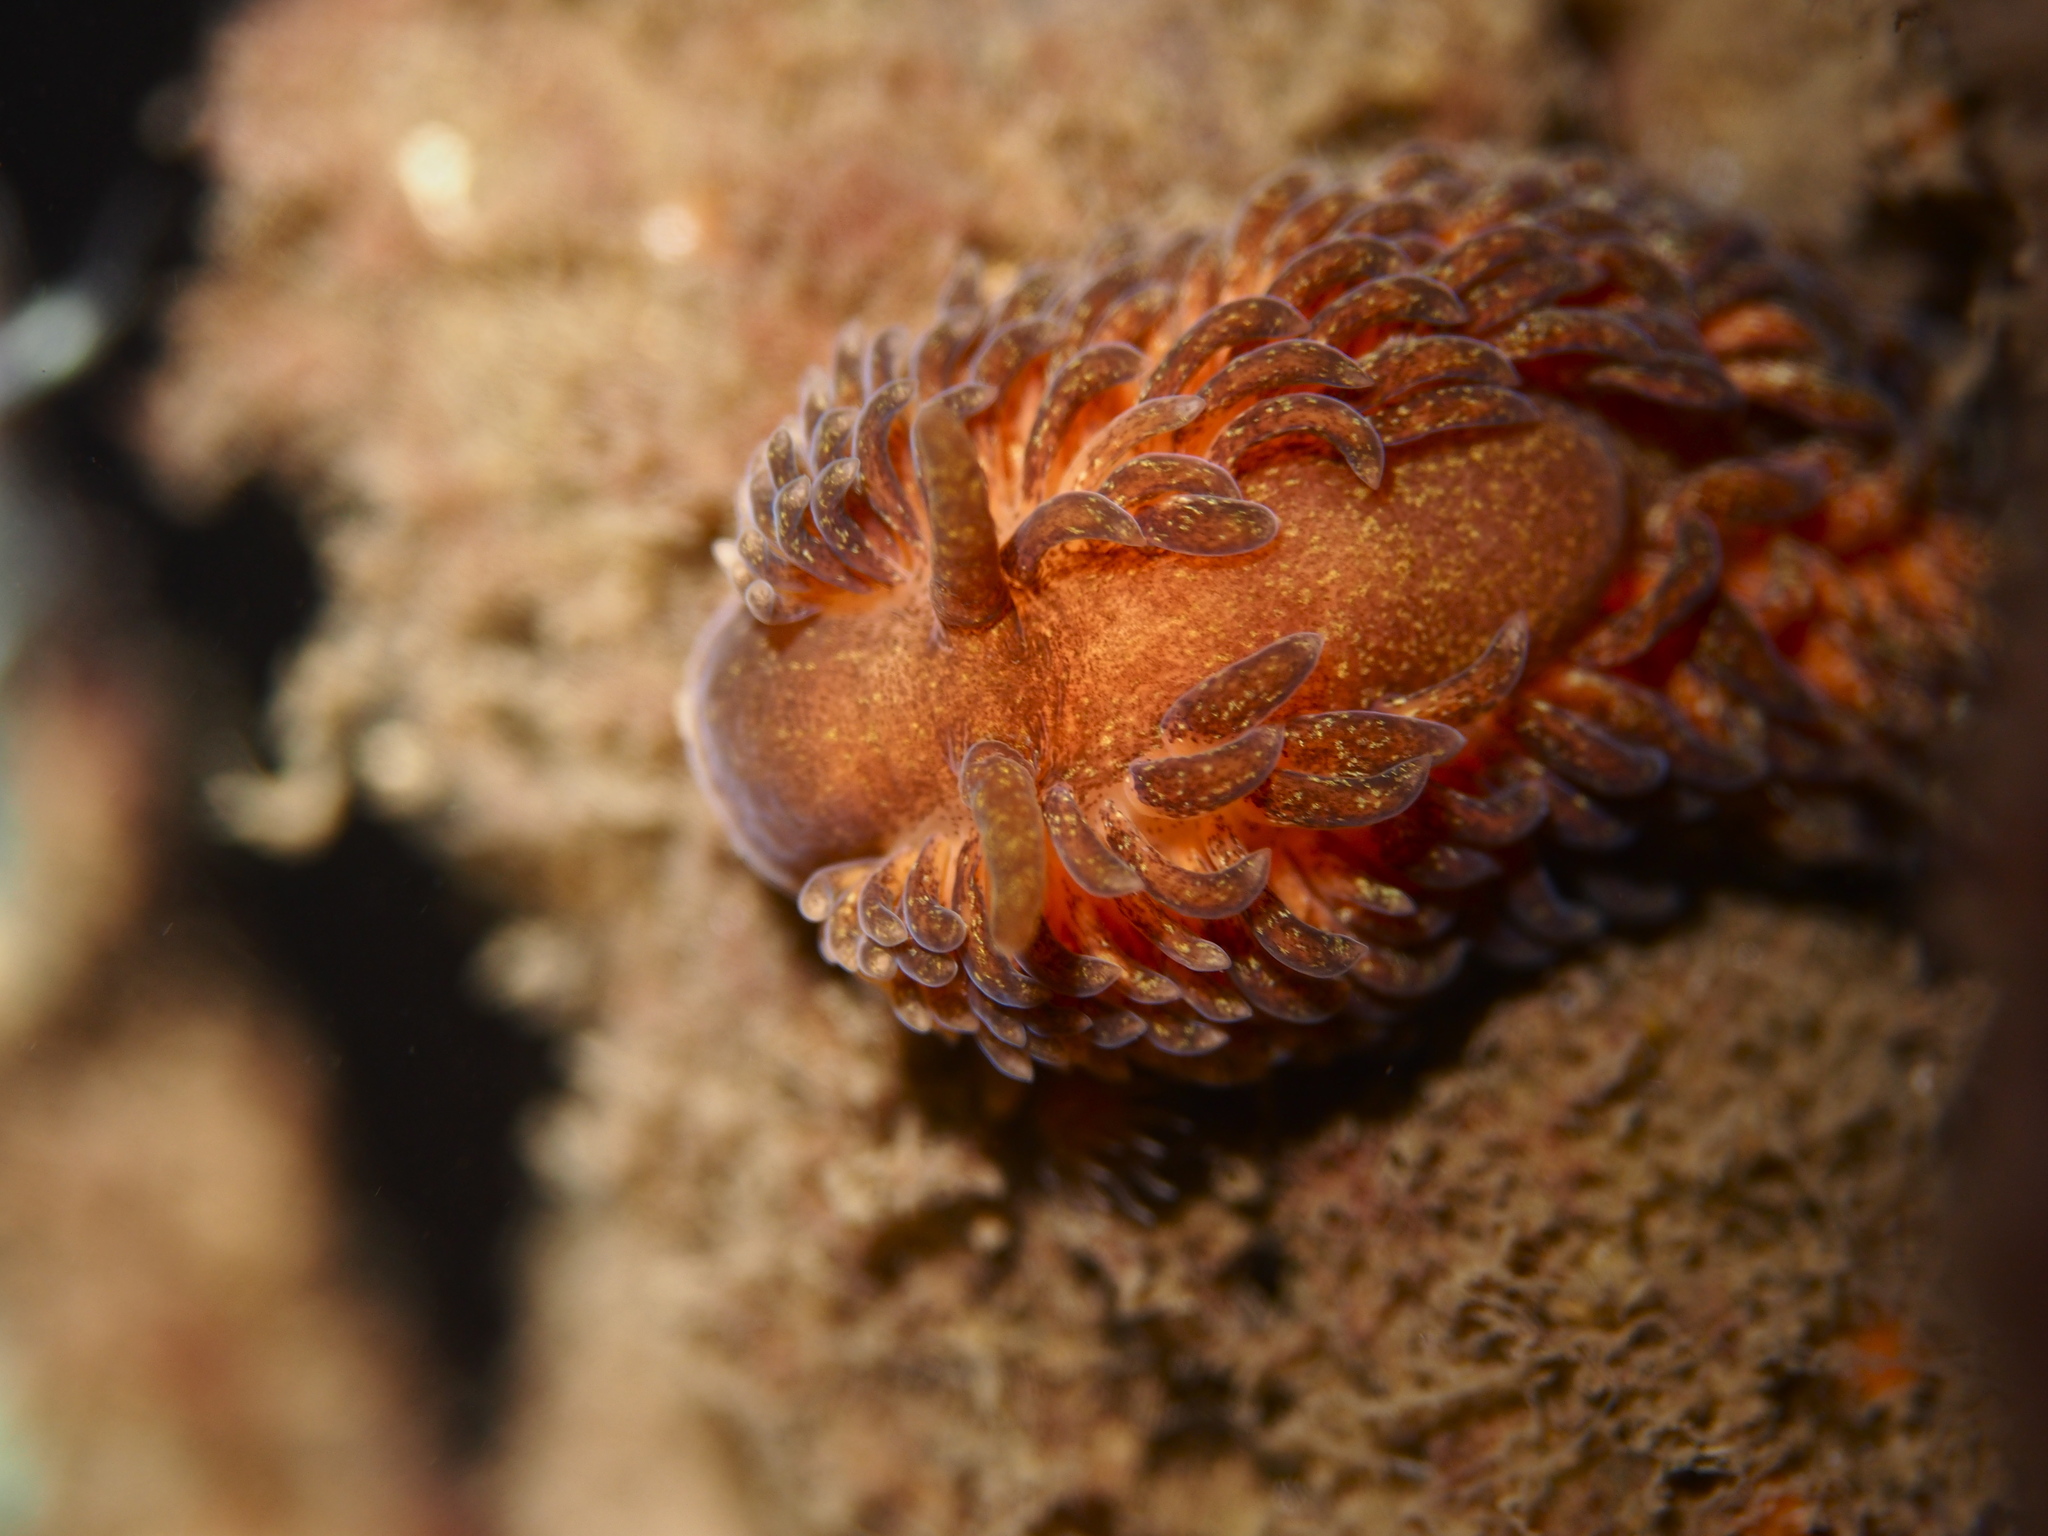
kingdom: Animalia
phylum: Mollusca
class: Gastropoda
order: Nudibranchia
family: Aeolidiidae
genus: Aeolidia
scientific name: Aeolidia papillosa
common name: Common grey sea slug
